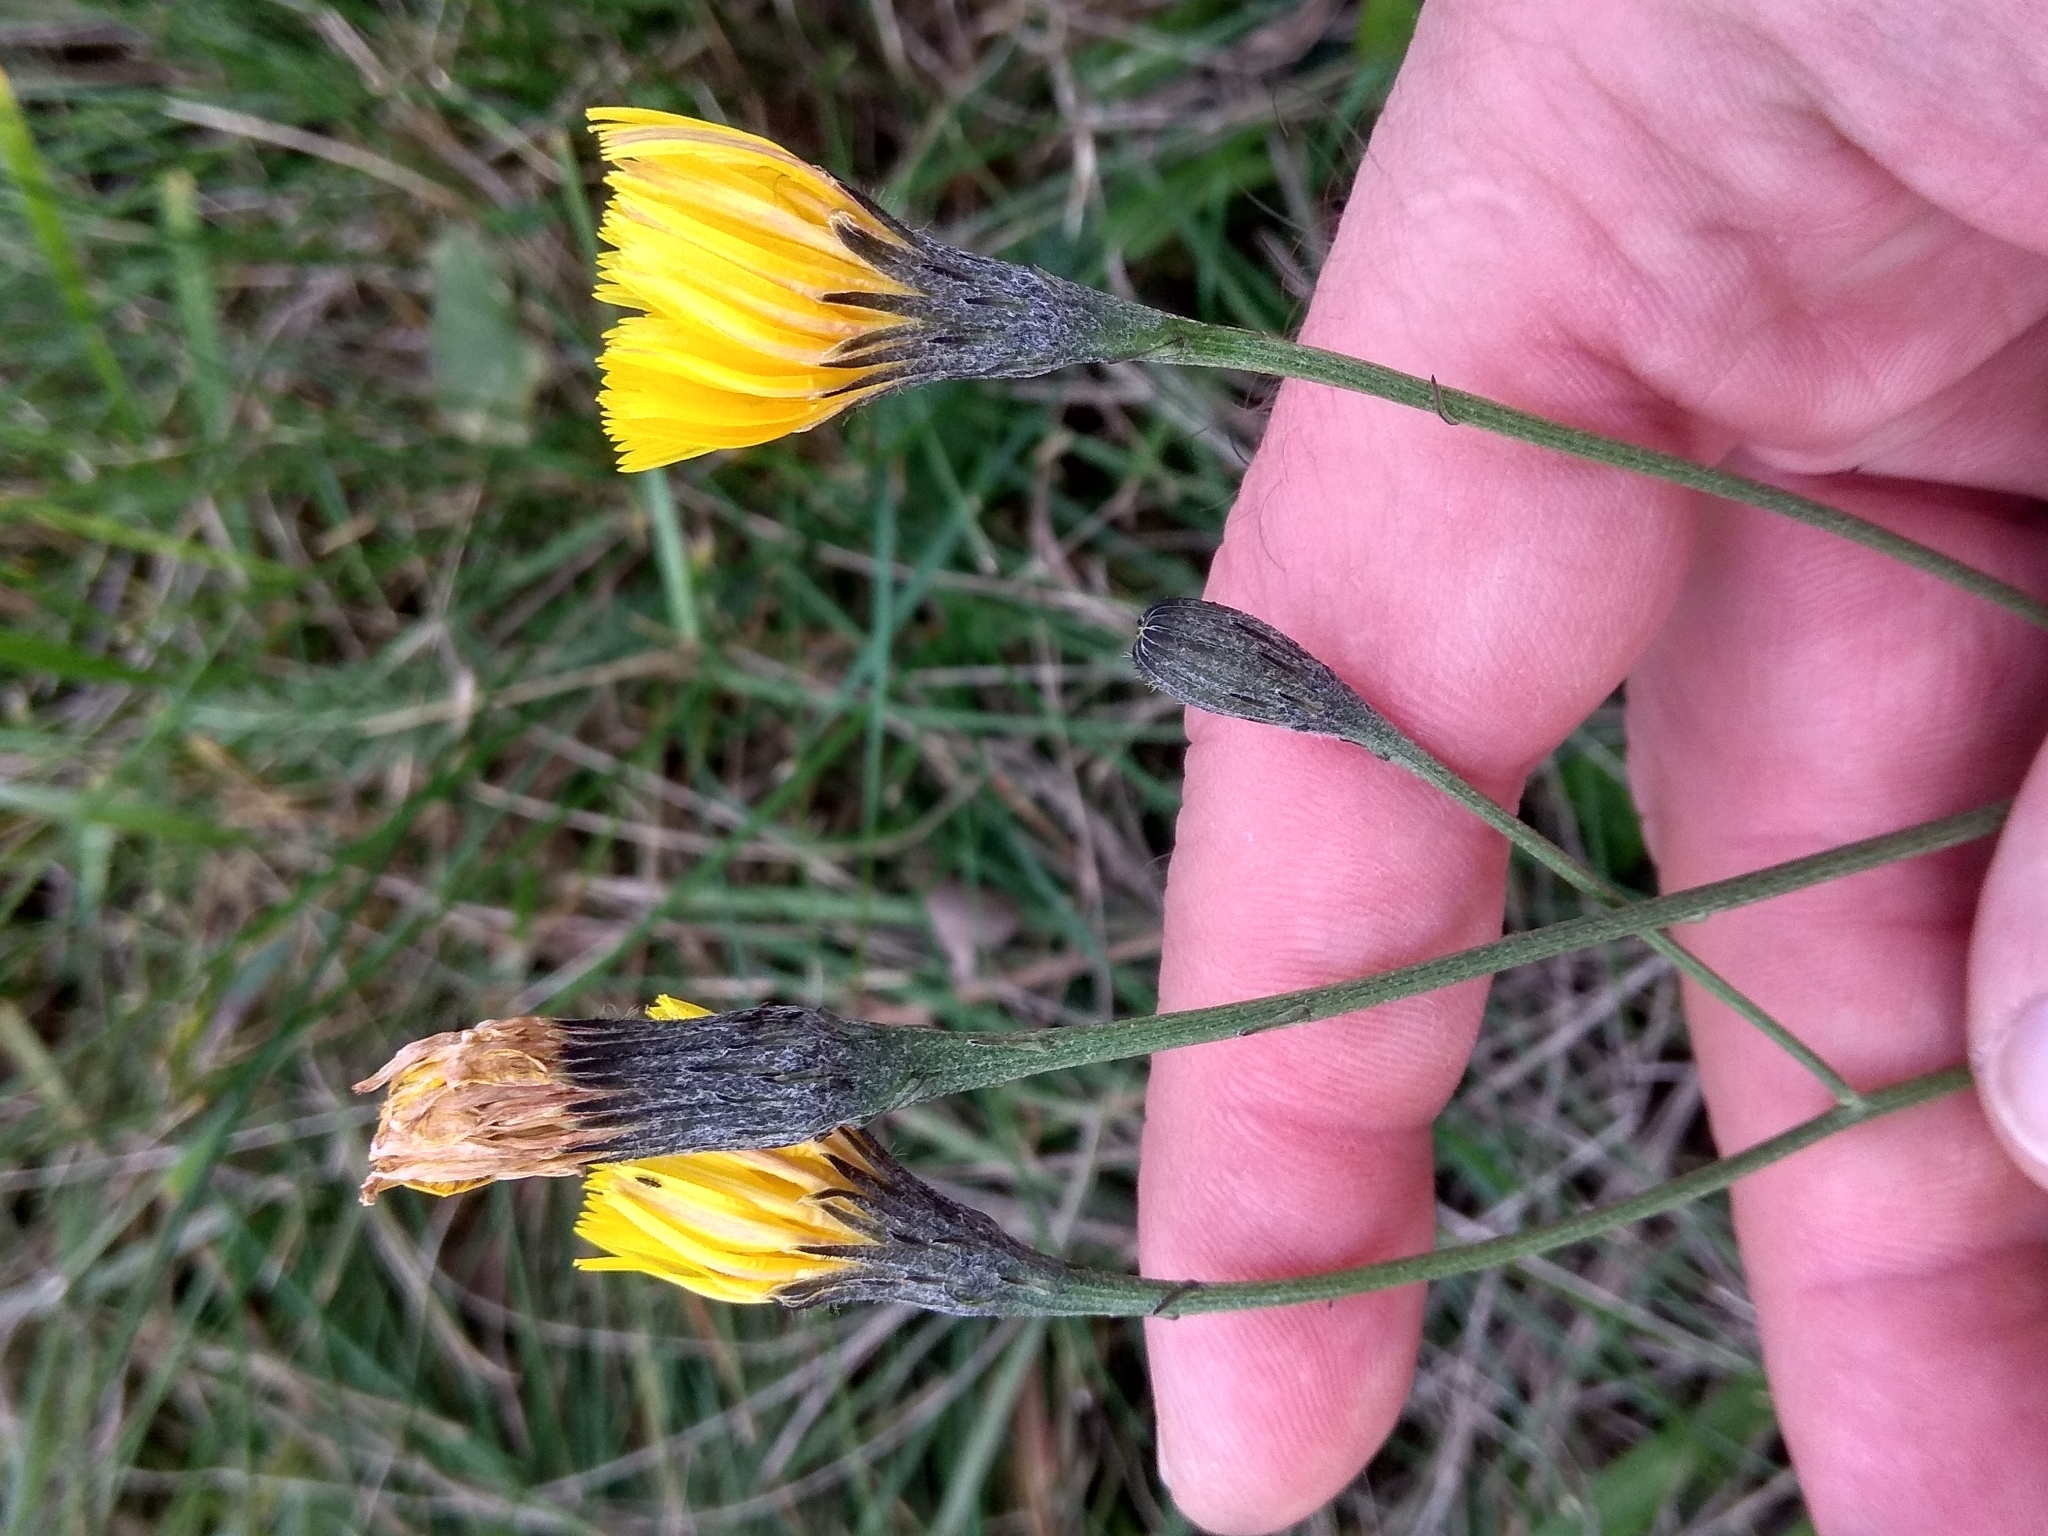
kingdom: Plantae
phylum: Tracheophyta
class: Magnoliopsida
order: Asterales
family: Asteraceae
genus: Scorzoneroides
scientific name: Scorzoneroides autumnalis
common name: Autumn hawkbit
